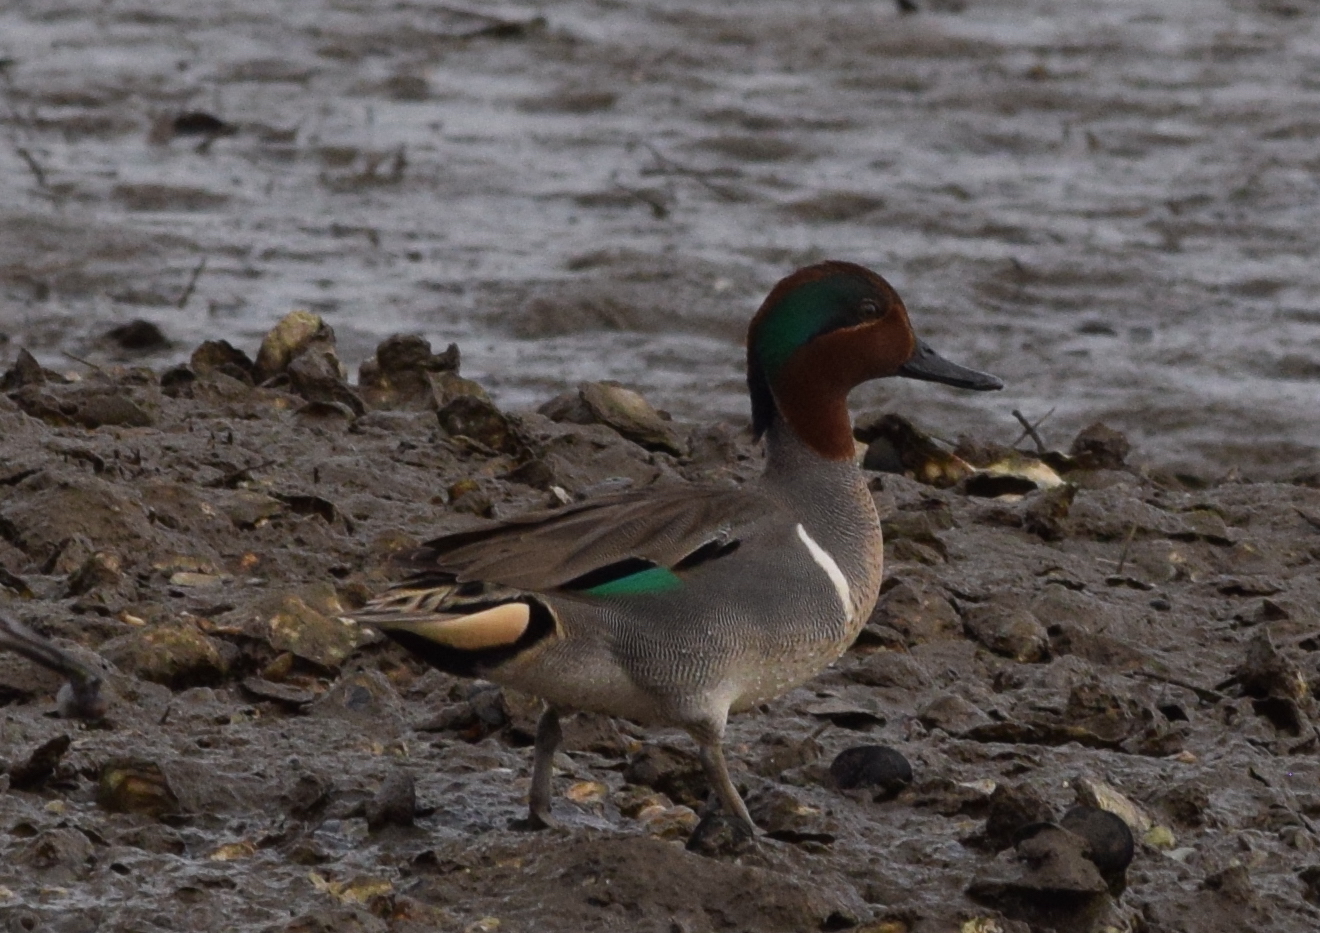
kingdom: Animalia
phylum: Chordata
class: Aves
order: Anseriformes
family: Anatidae
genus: Anas
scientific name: Anas crecca
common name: Eurasian teal
